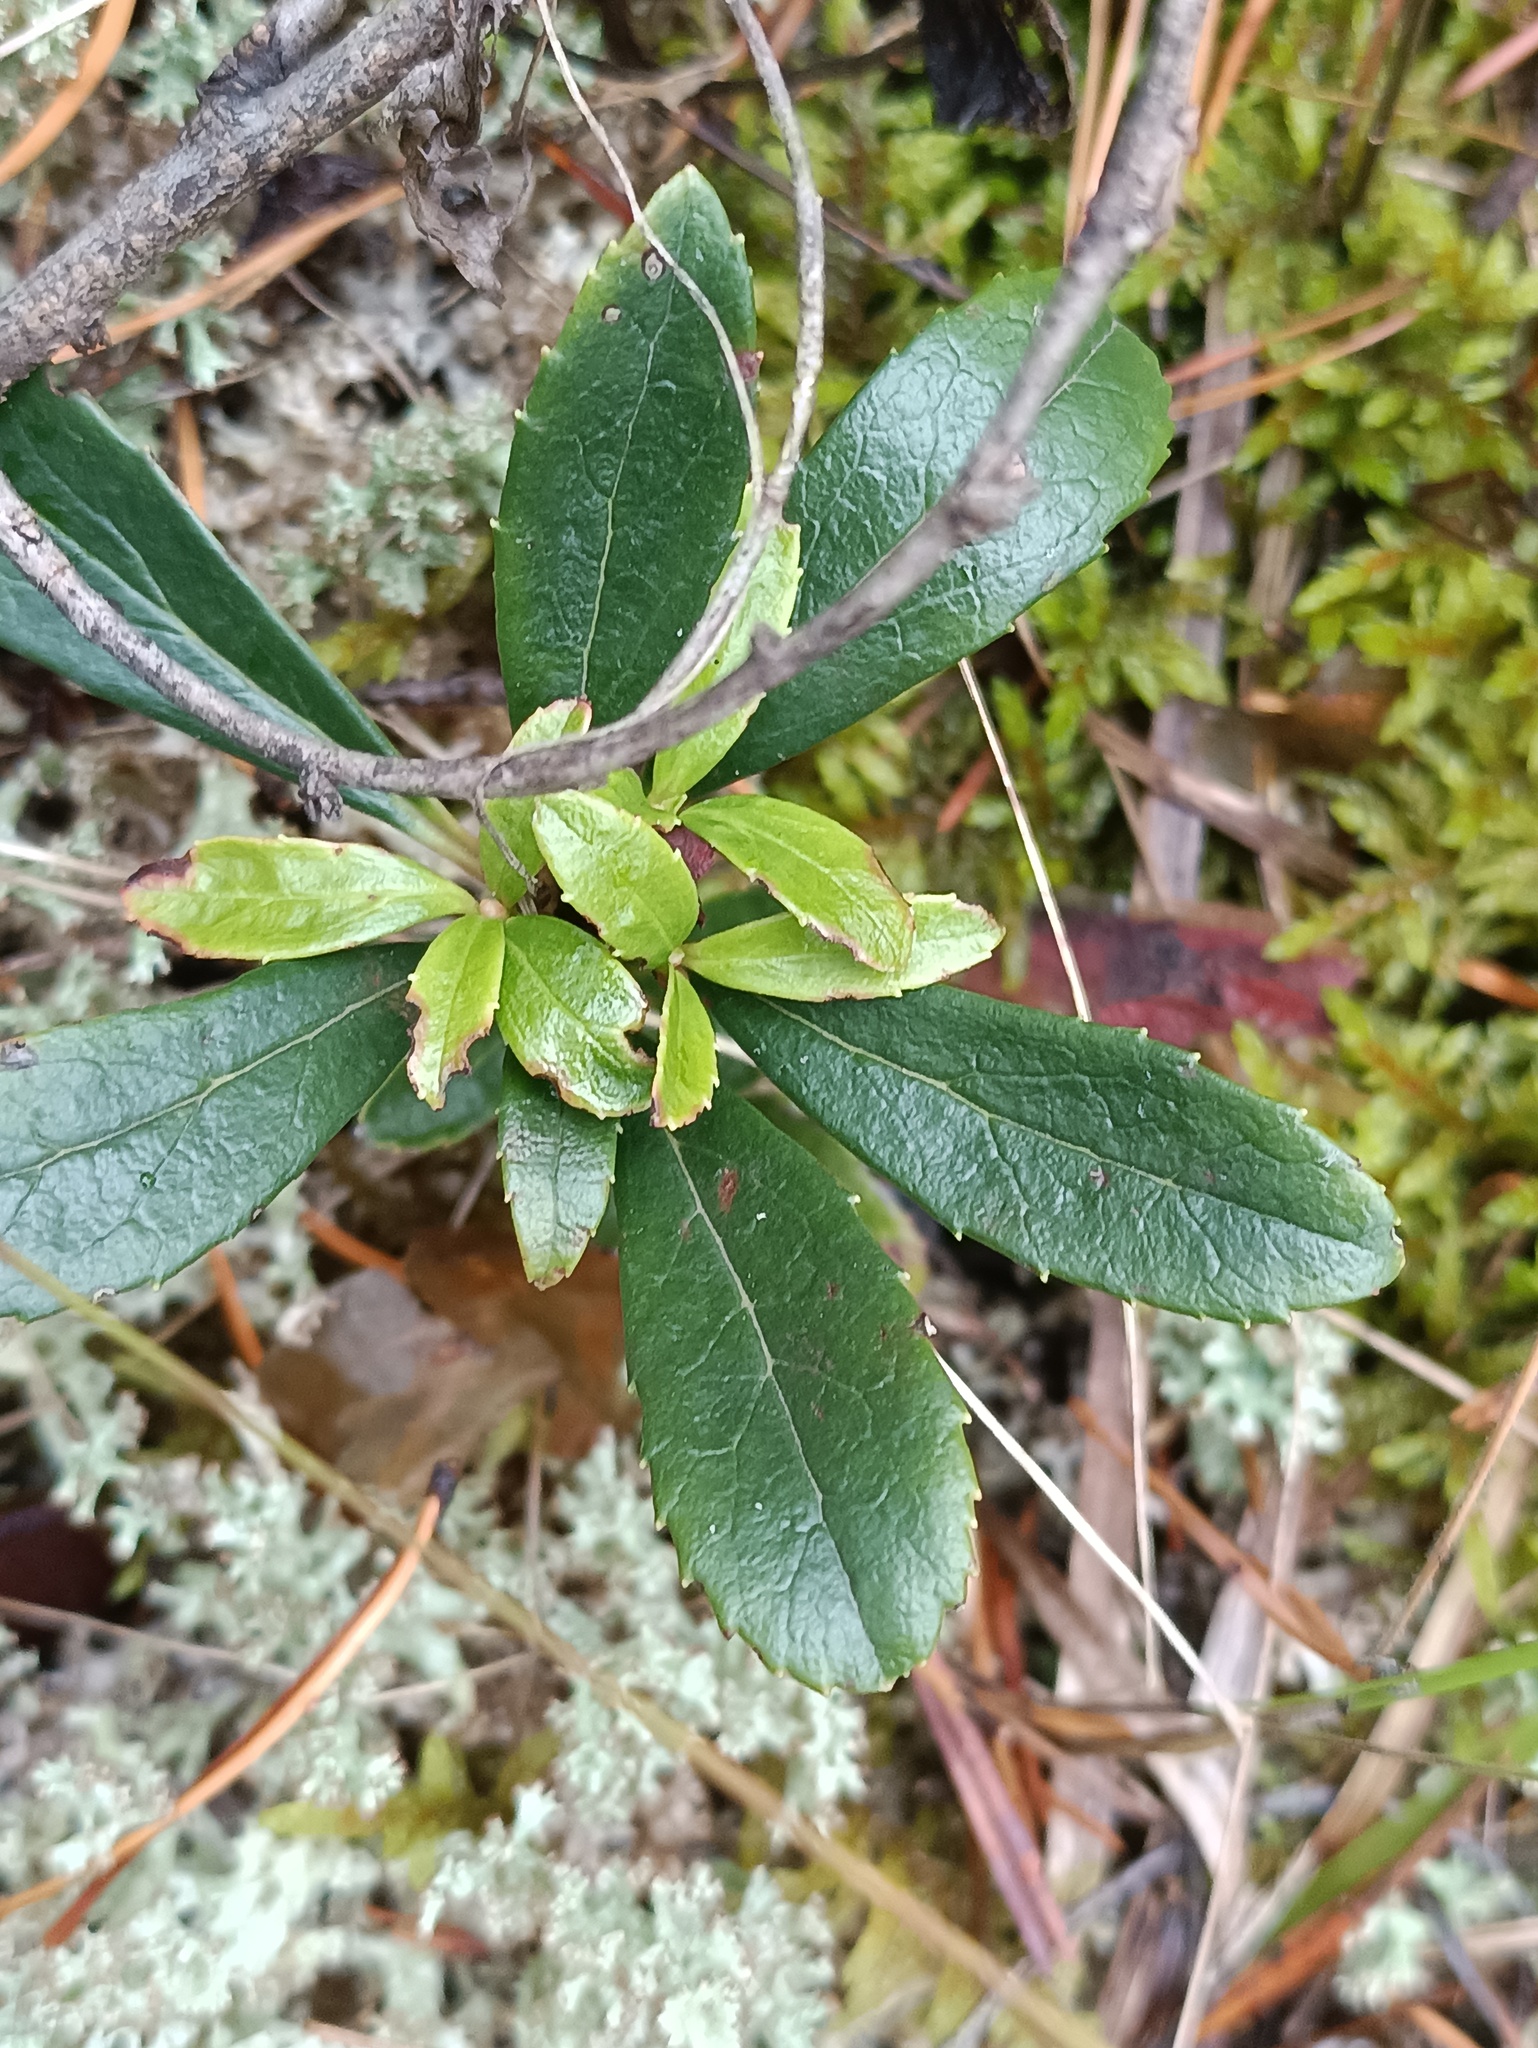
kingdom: Plantae
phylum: Tracheophyta
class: Magnoliopsida
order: Ericales
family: Ericaceae
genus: Chimaphila
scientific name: Chimaphila umbellata
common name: Pipsissewa
